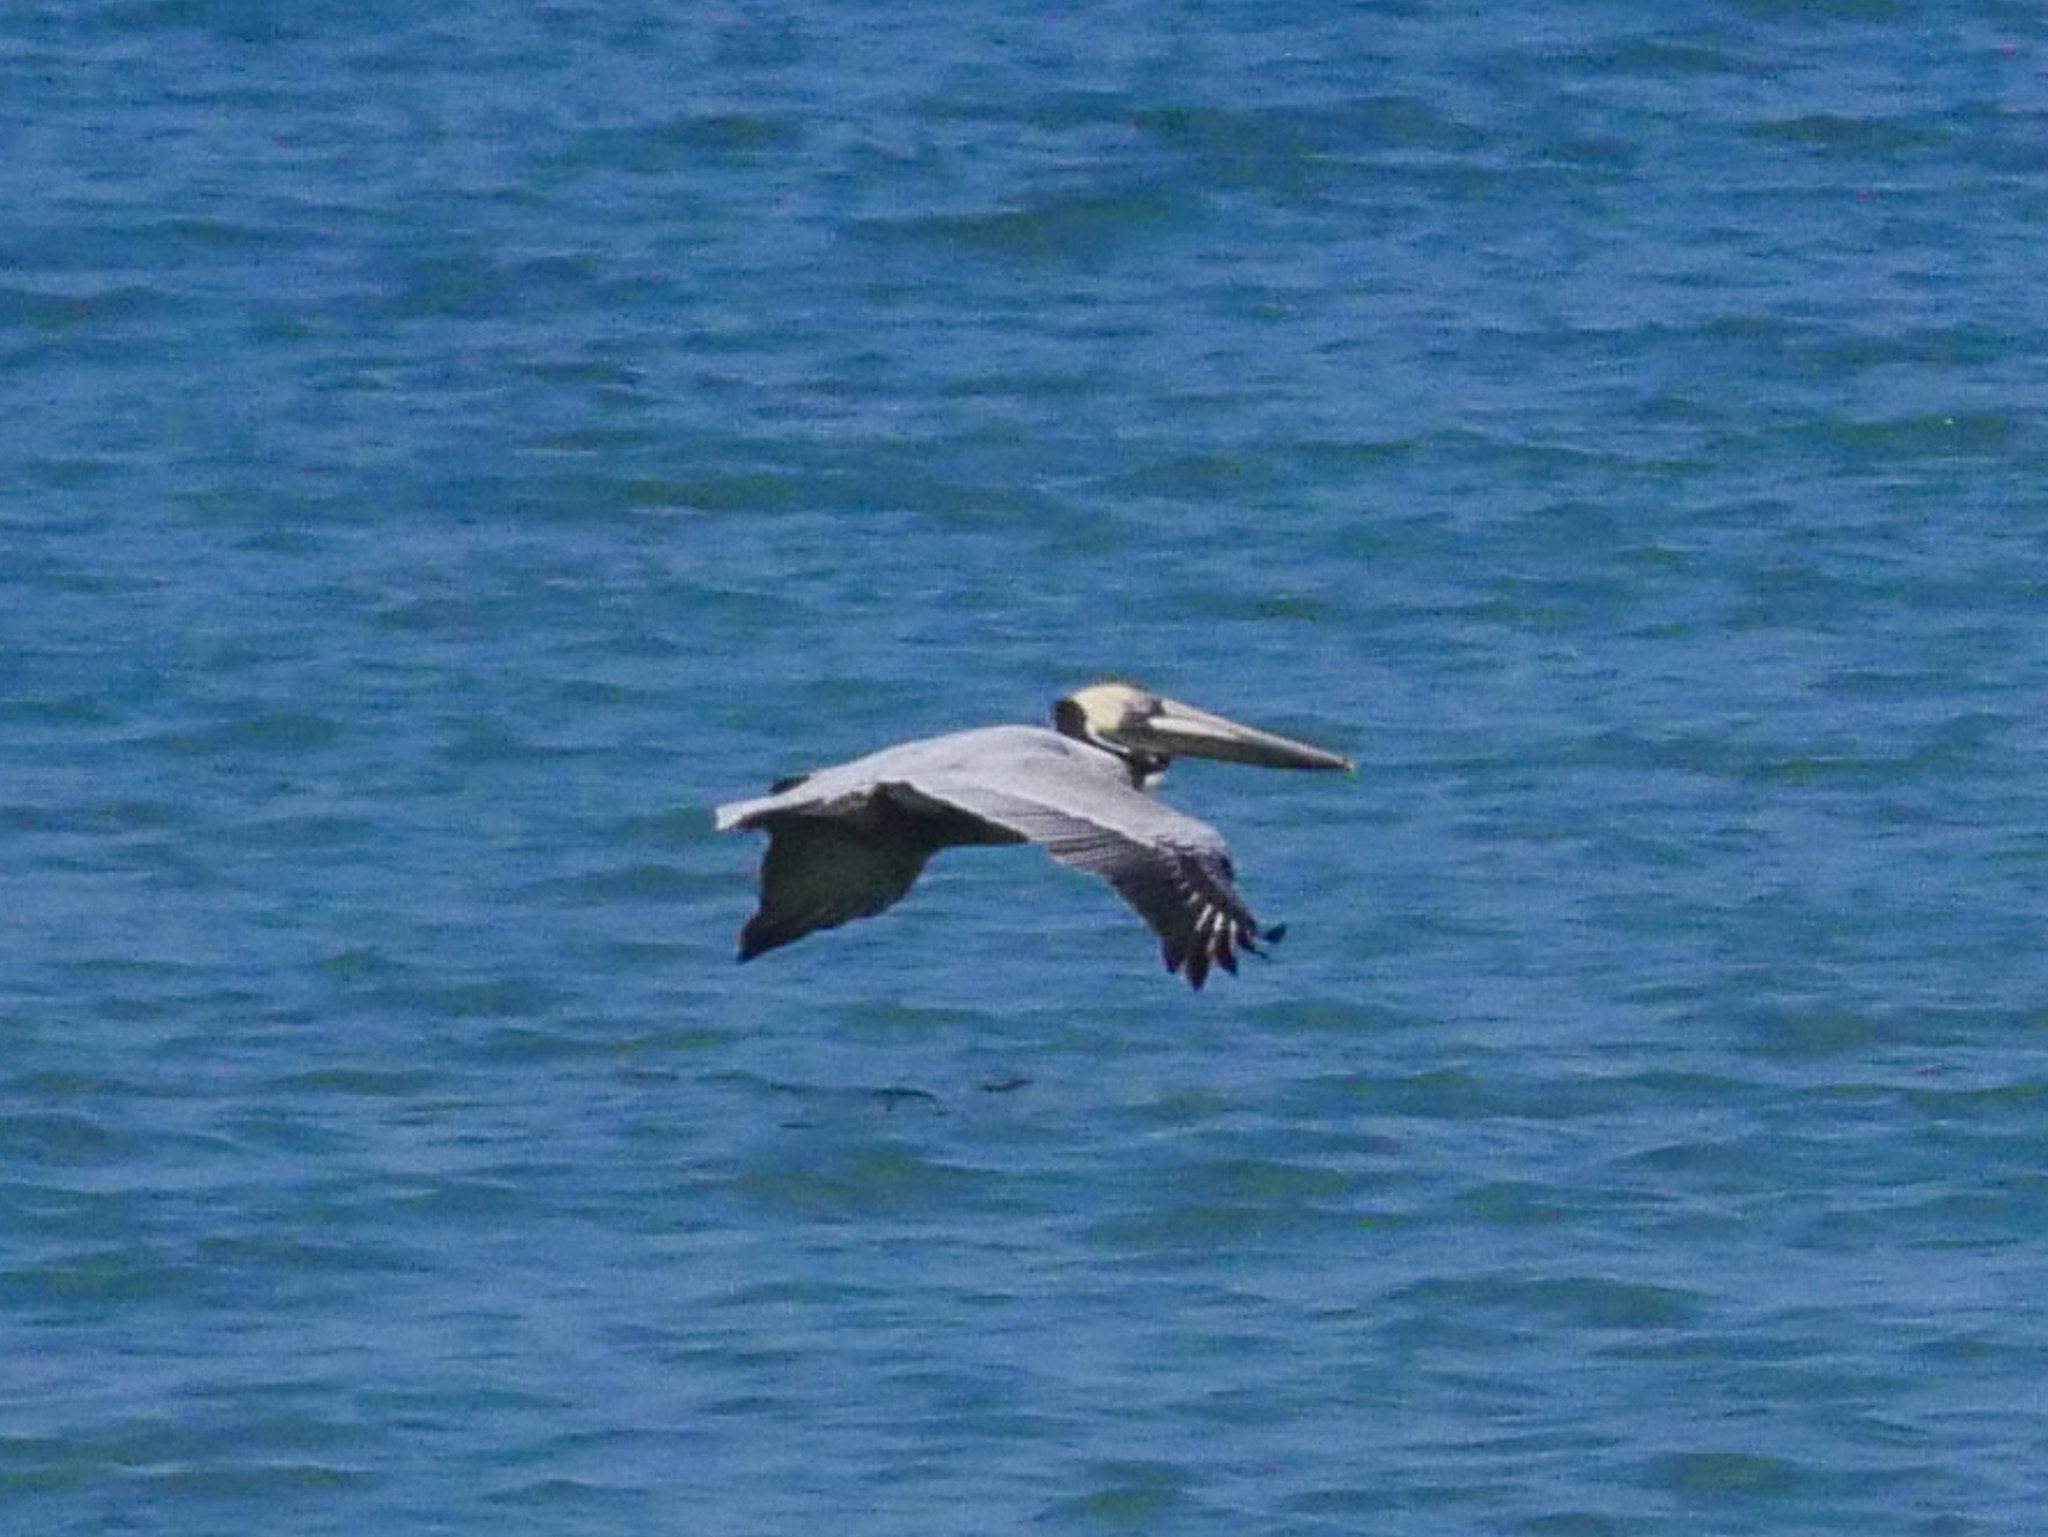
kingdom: Animalia
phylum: Chordata
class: Aves
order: Pelecaniformes
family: Pelecanidae
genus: Pelecanus
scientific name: Pelecanus occidentalis
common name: Brown pelican
